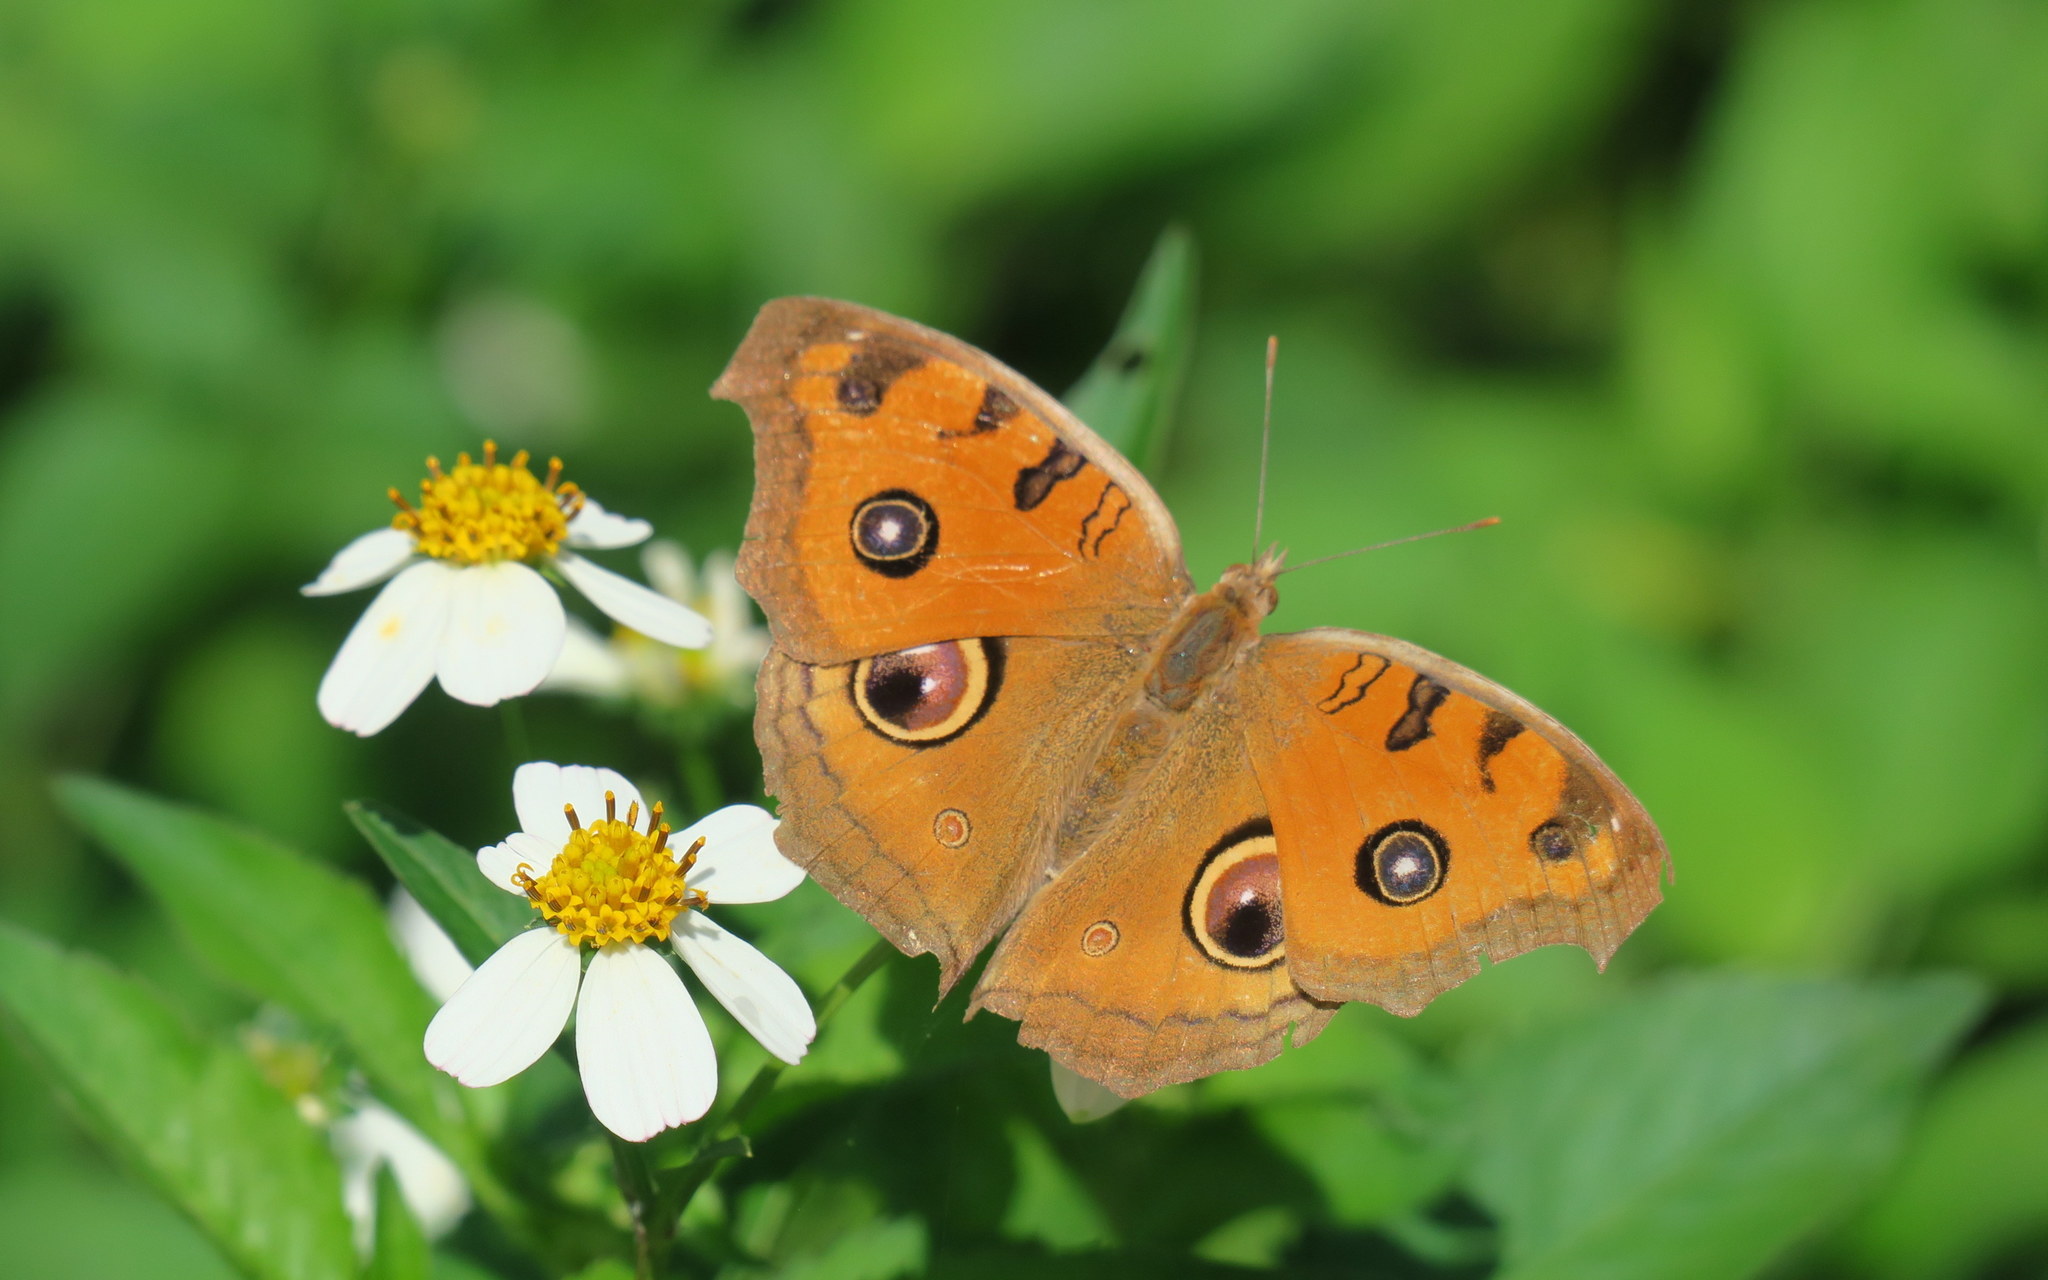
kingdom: Animalia
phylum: Arthropoda
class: Insecta
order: Lepidoptera
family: Nymphalidae
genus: Junonia
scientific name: Junonia almana
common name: Peacock pansy
